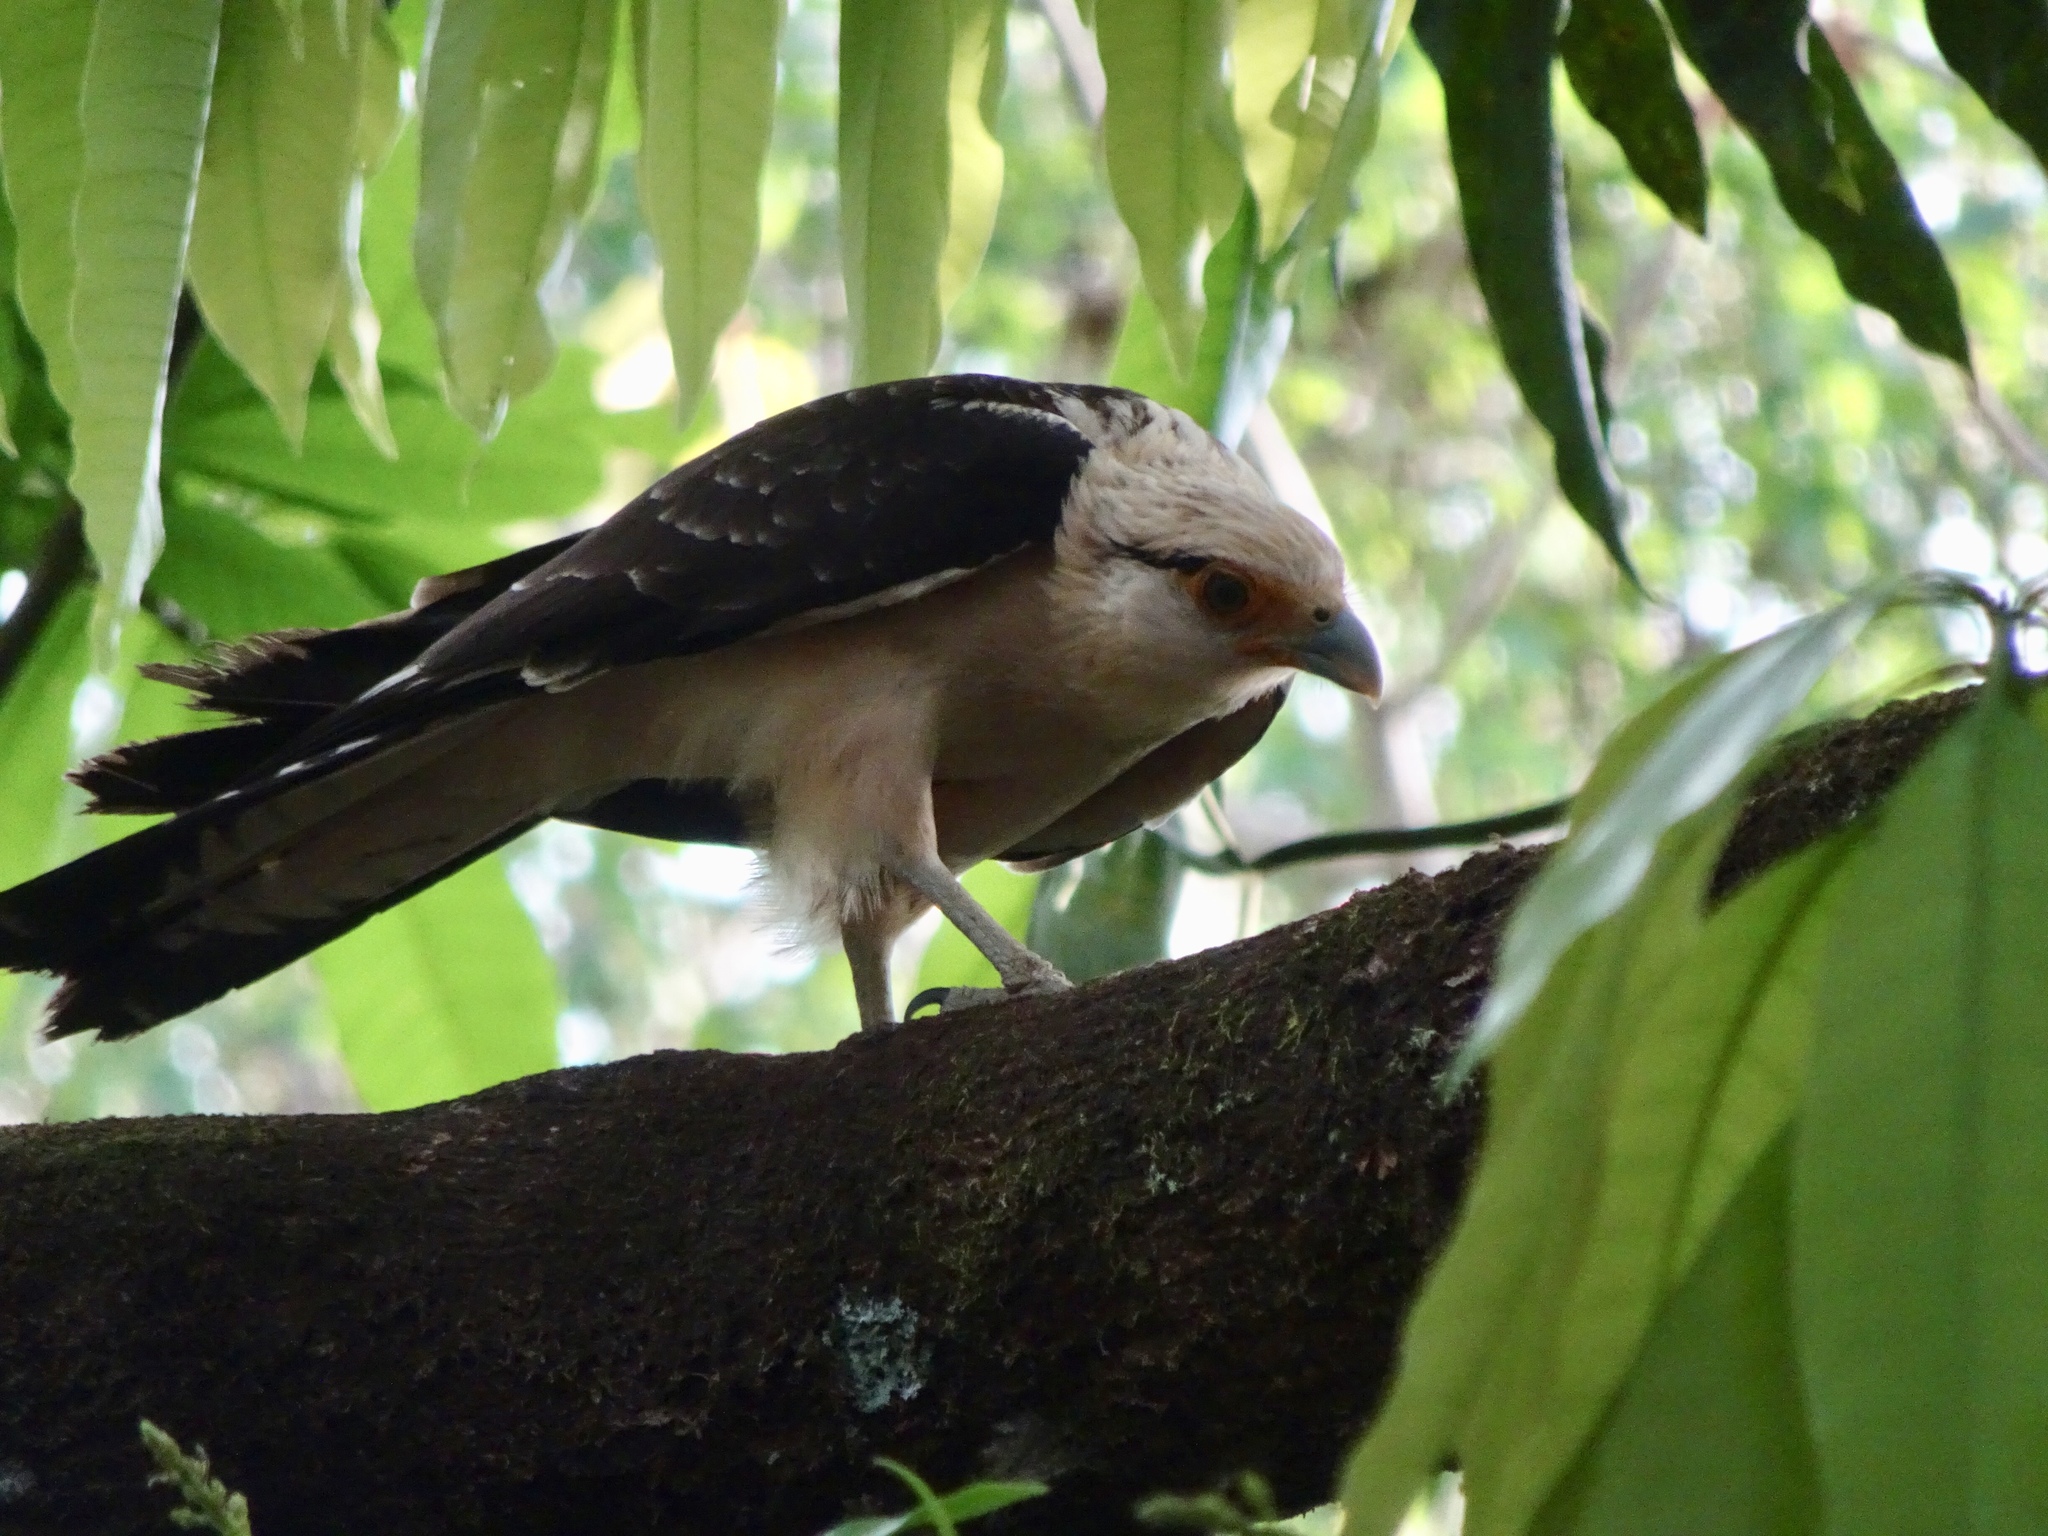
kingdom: Animalia
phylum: Chordata
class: Aves
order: Falconiformes
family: Falconidae
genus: Daptrius
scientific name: Daptrius
